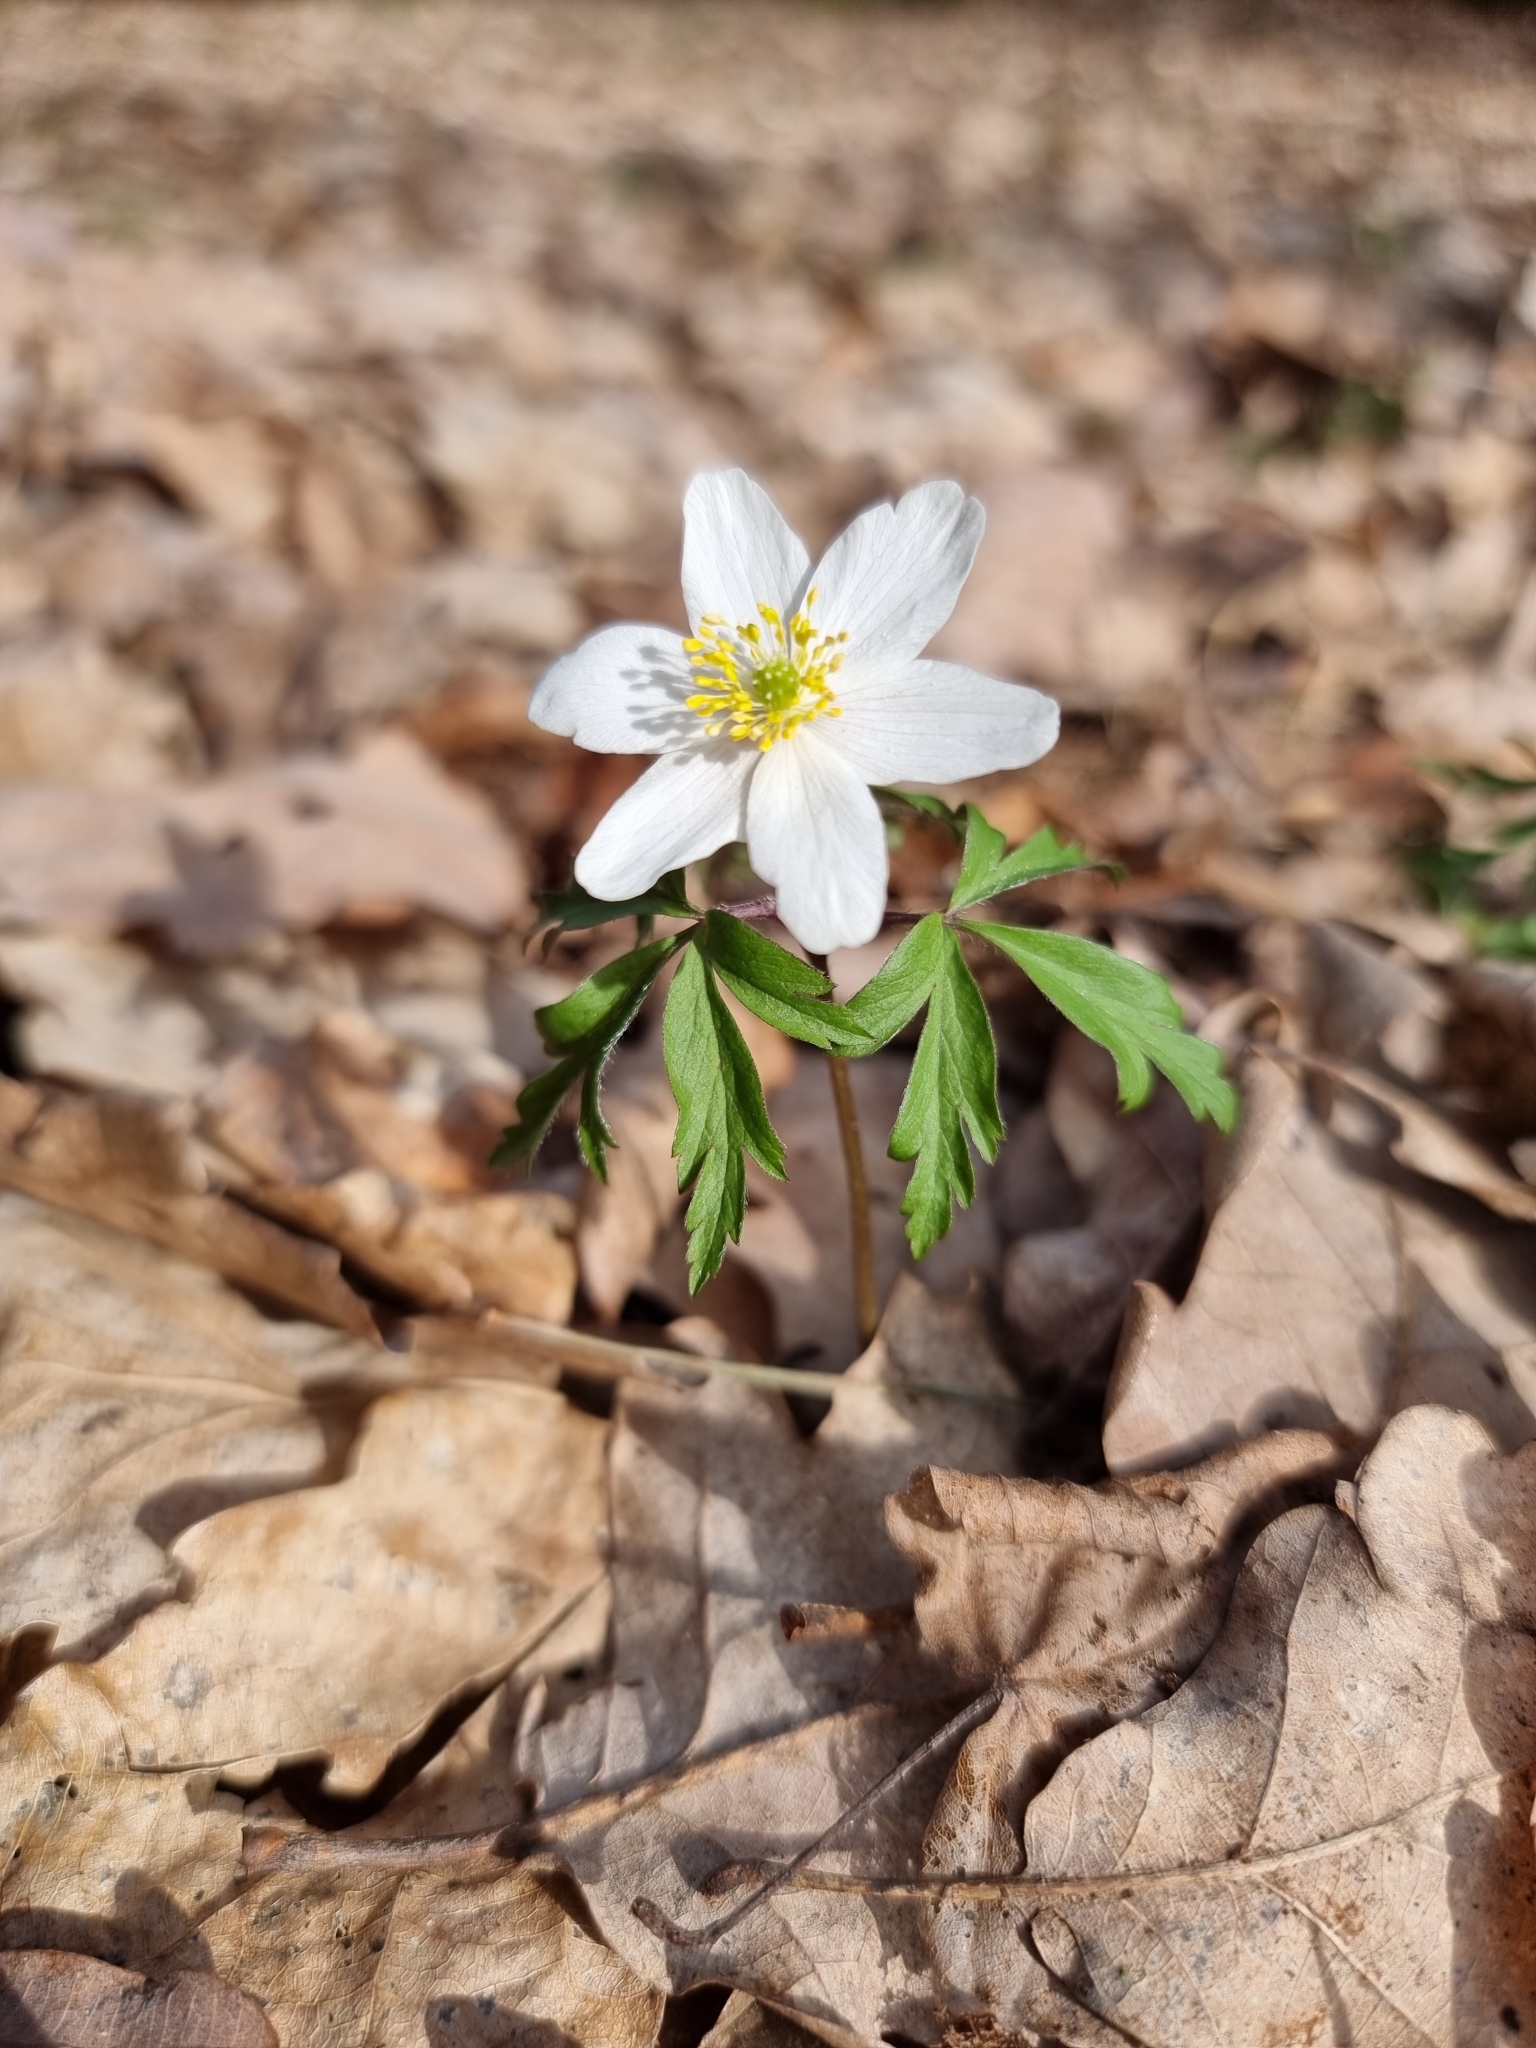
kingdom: Plantae
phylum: Tracheophyta
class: Magnoliopsida
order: Ranunculales
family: Ranunculaceae
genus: Anemone
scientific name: Anemone nemorosa
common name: Wood anemone
